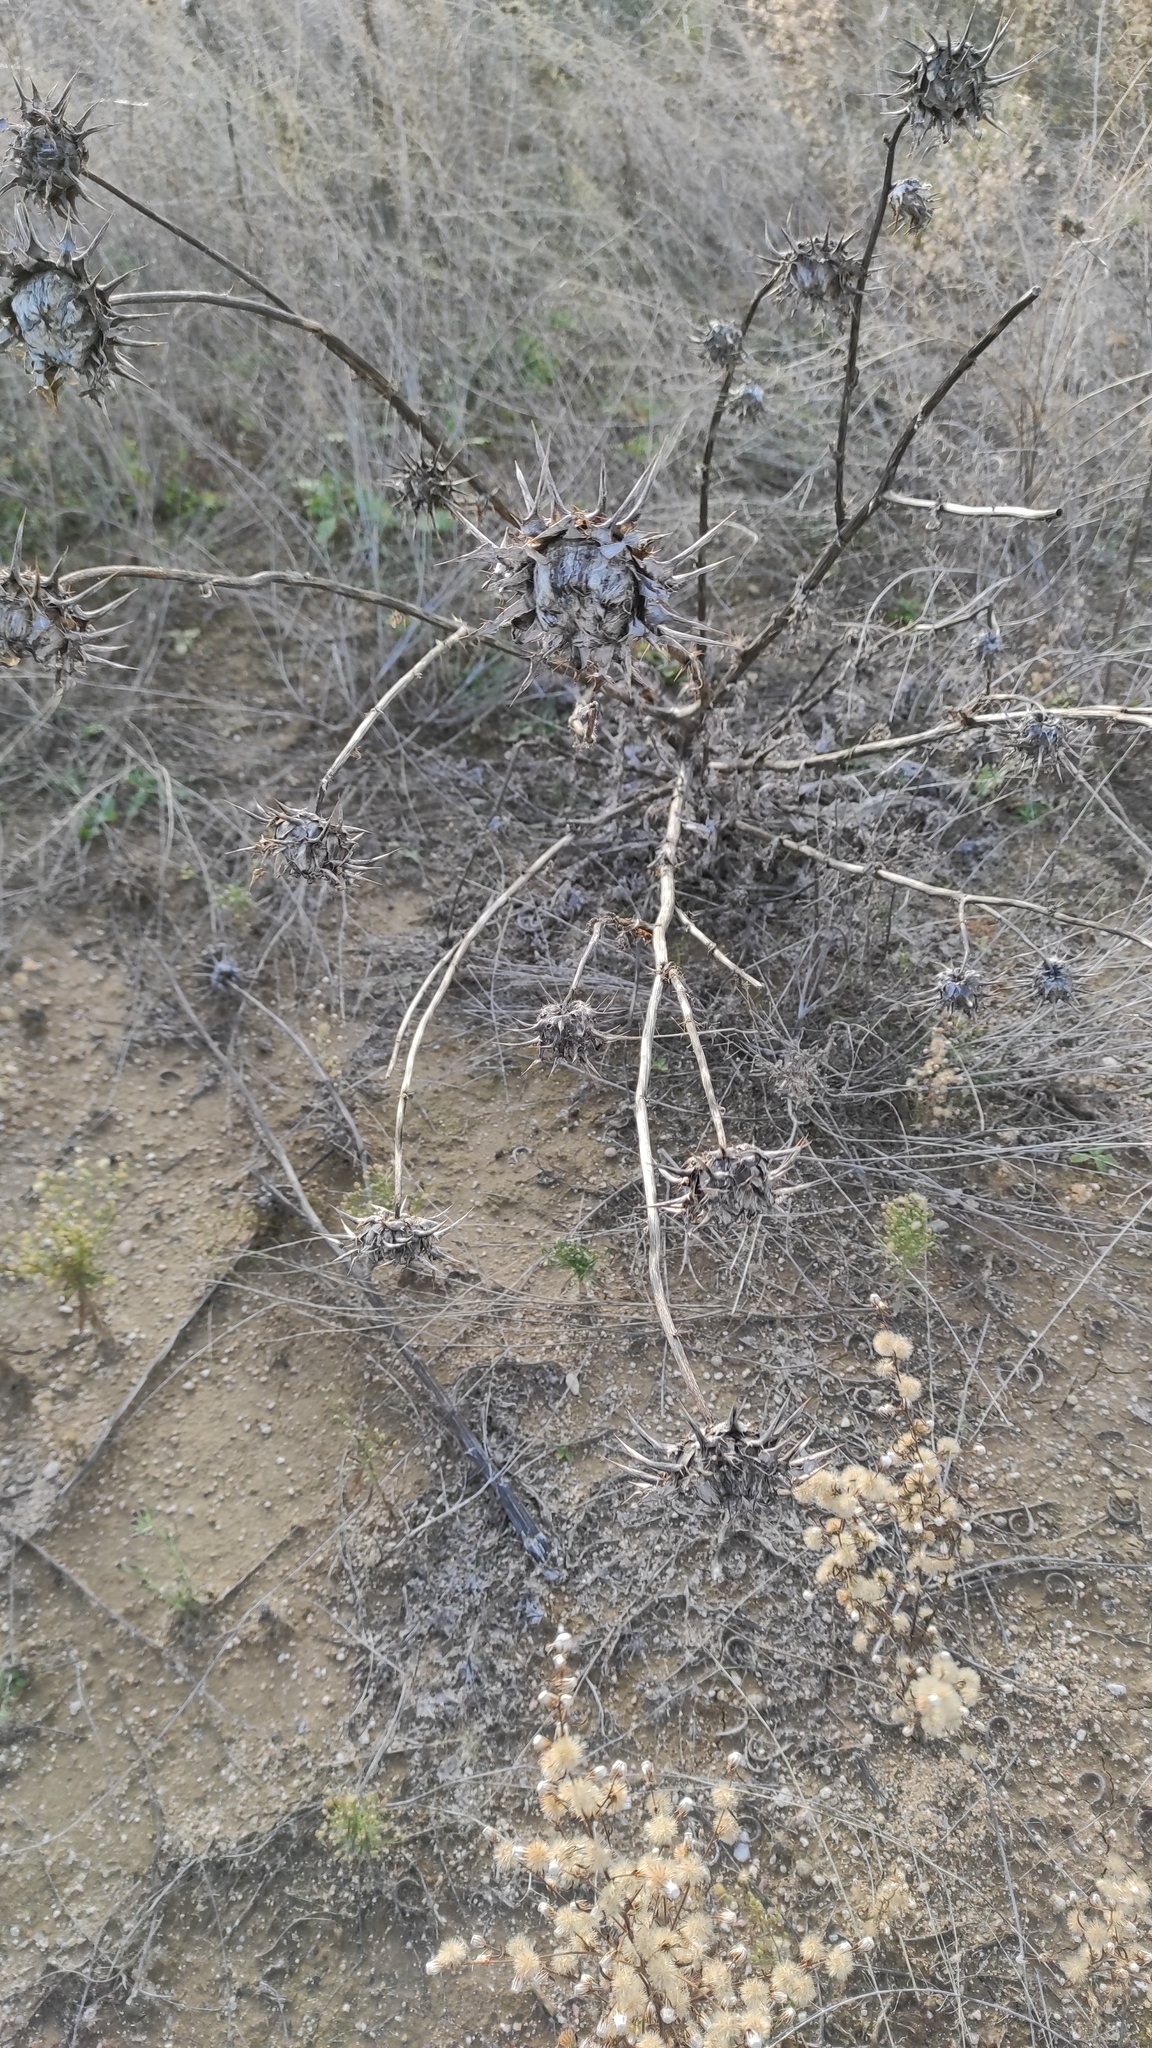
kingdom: Plantae
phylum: Tracheophyta
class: Magnoliopsida
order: Asterales
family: Asteraceae
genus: Silybum
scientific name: Silybum marianum
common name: Milk thistle
